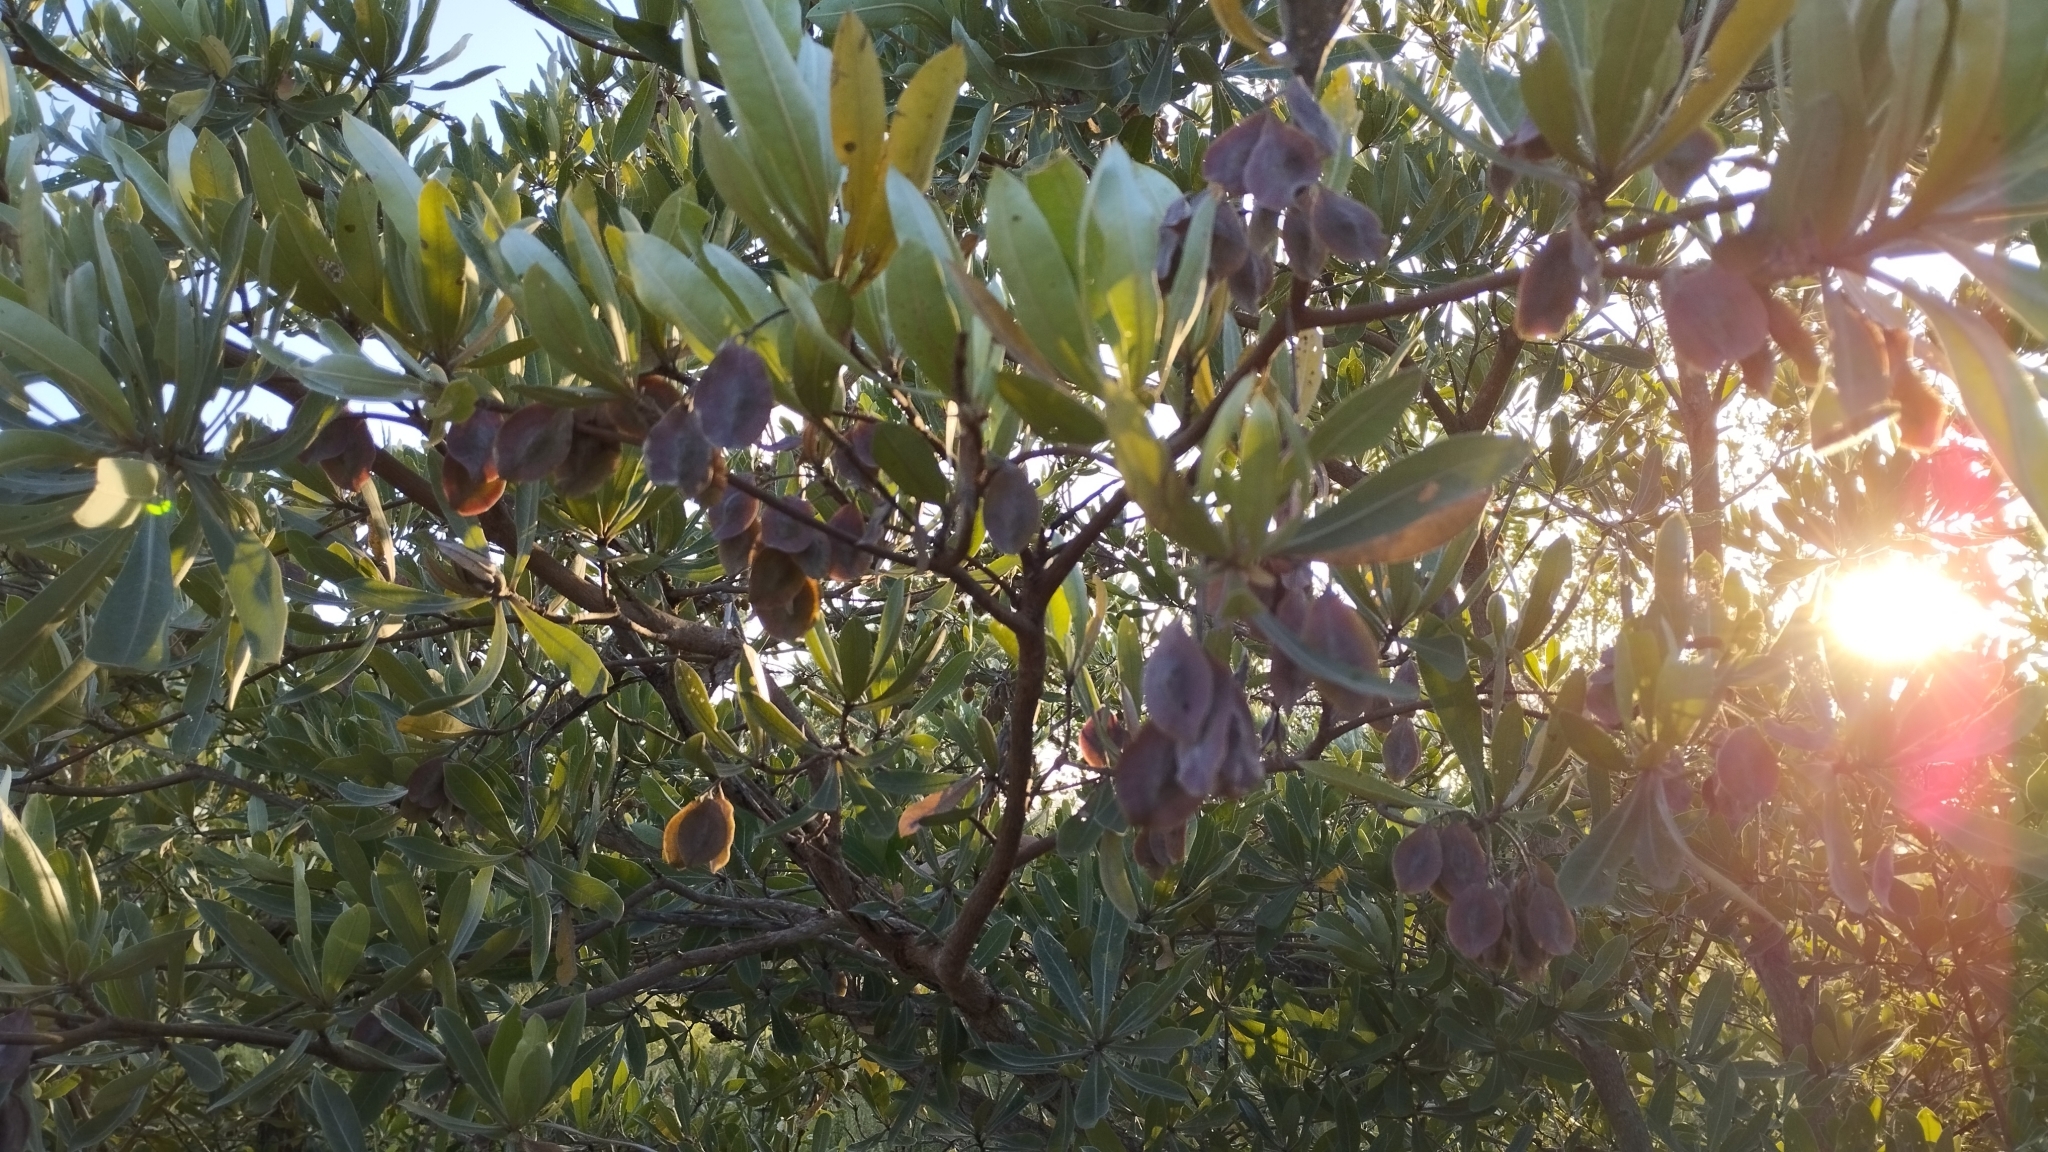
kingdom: Plantae
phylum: Tracheophyta
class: Magnoliopsida
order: Myrtales
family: Combretaceae
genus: Terminalia
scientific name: Terminalia sericea
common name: Clusterleaf
